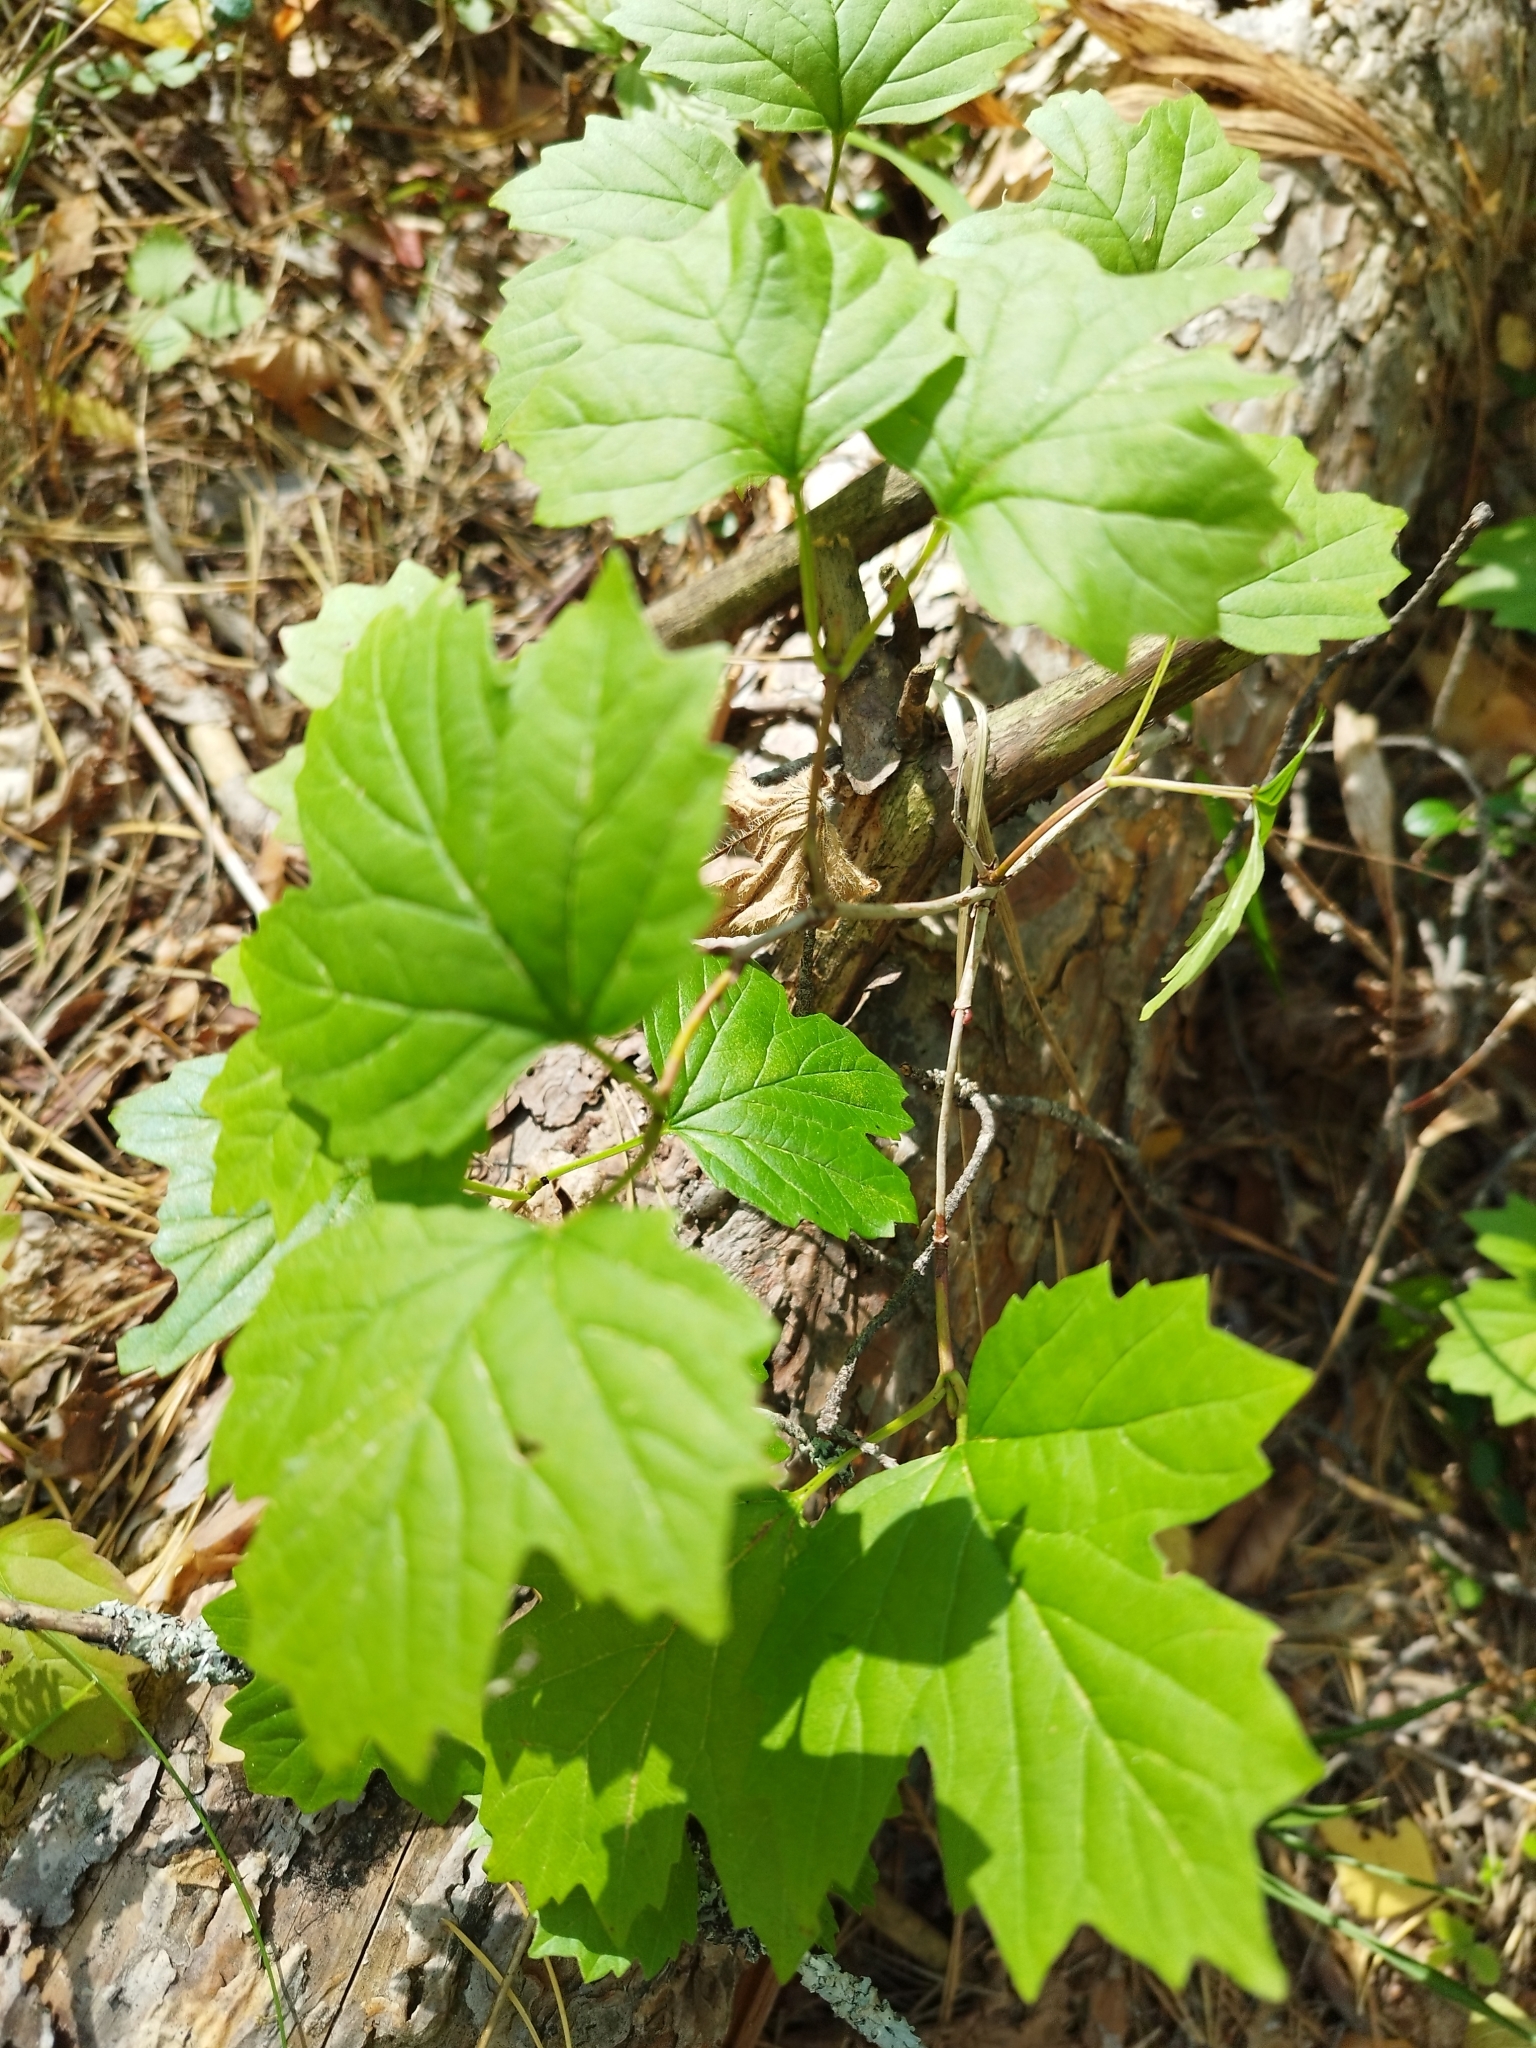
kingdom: Plantae
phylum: Tracheophyta
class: Magnoliopsida
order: Dipsacales
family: Viburnaceae
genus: Viburnum
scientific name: Viburnum opulus
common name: Guelder-rose
